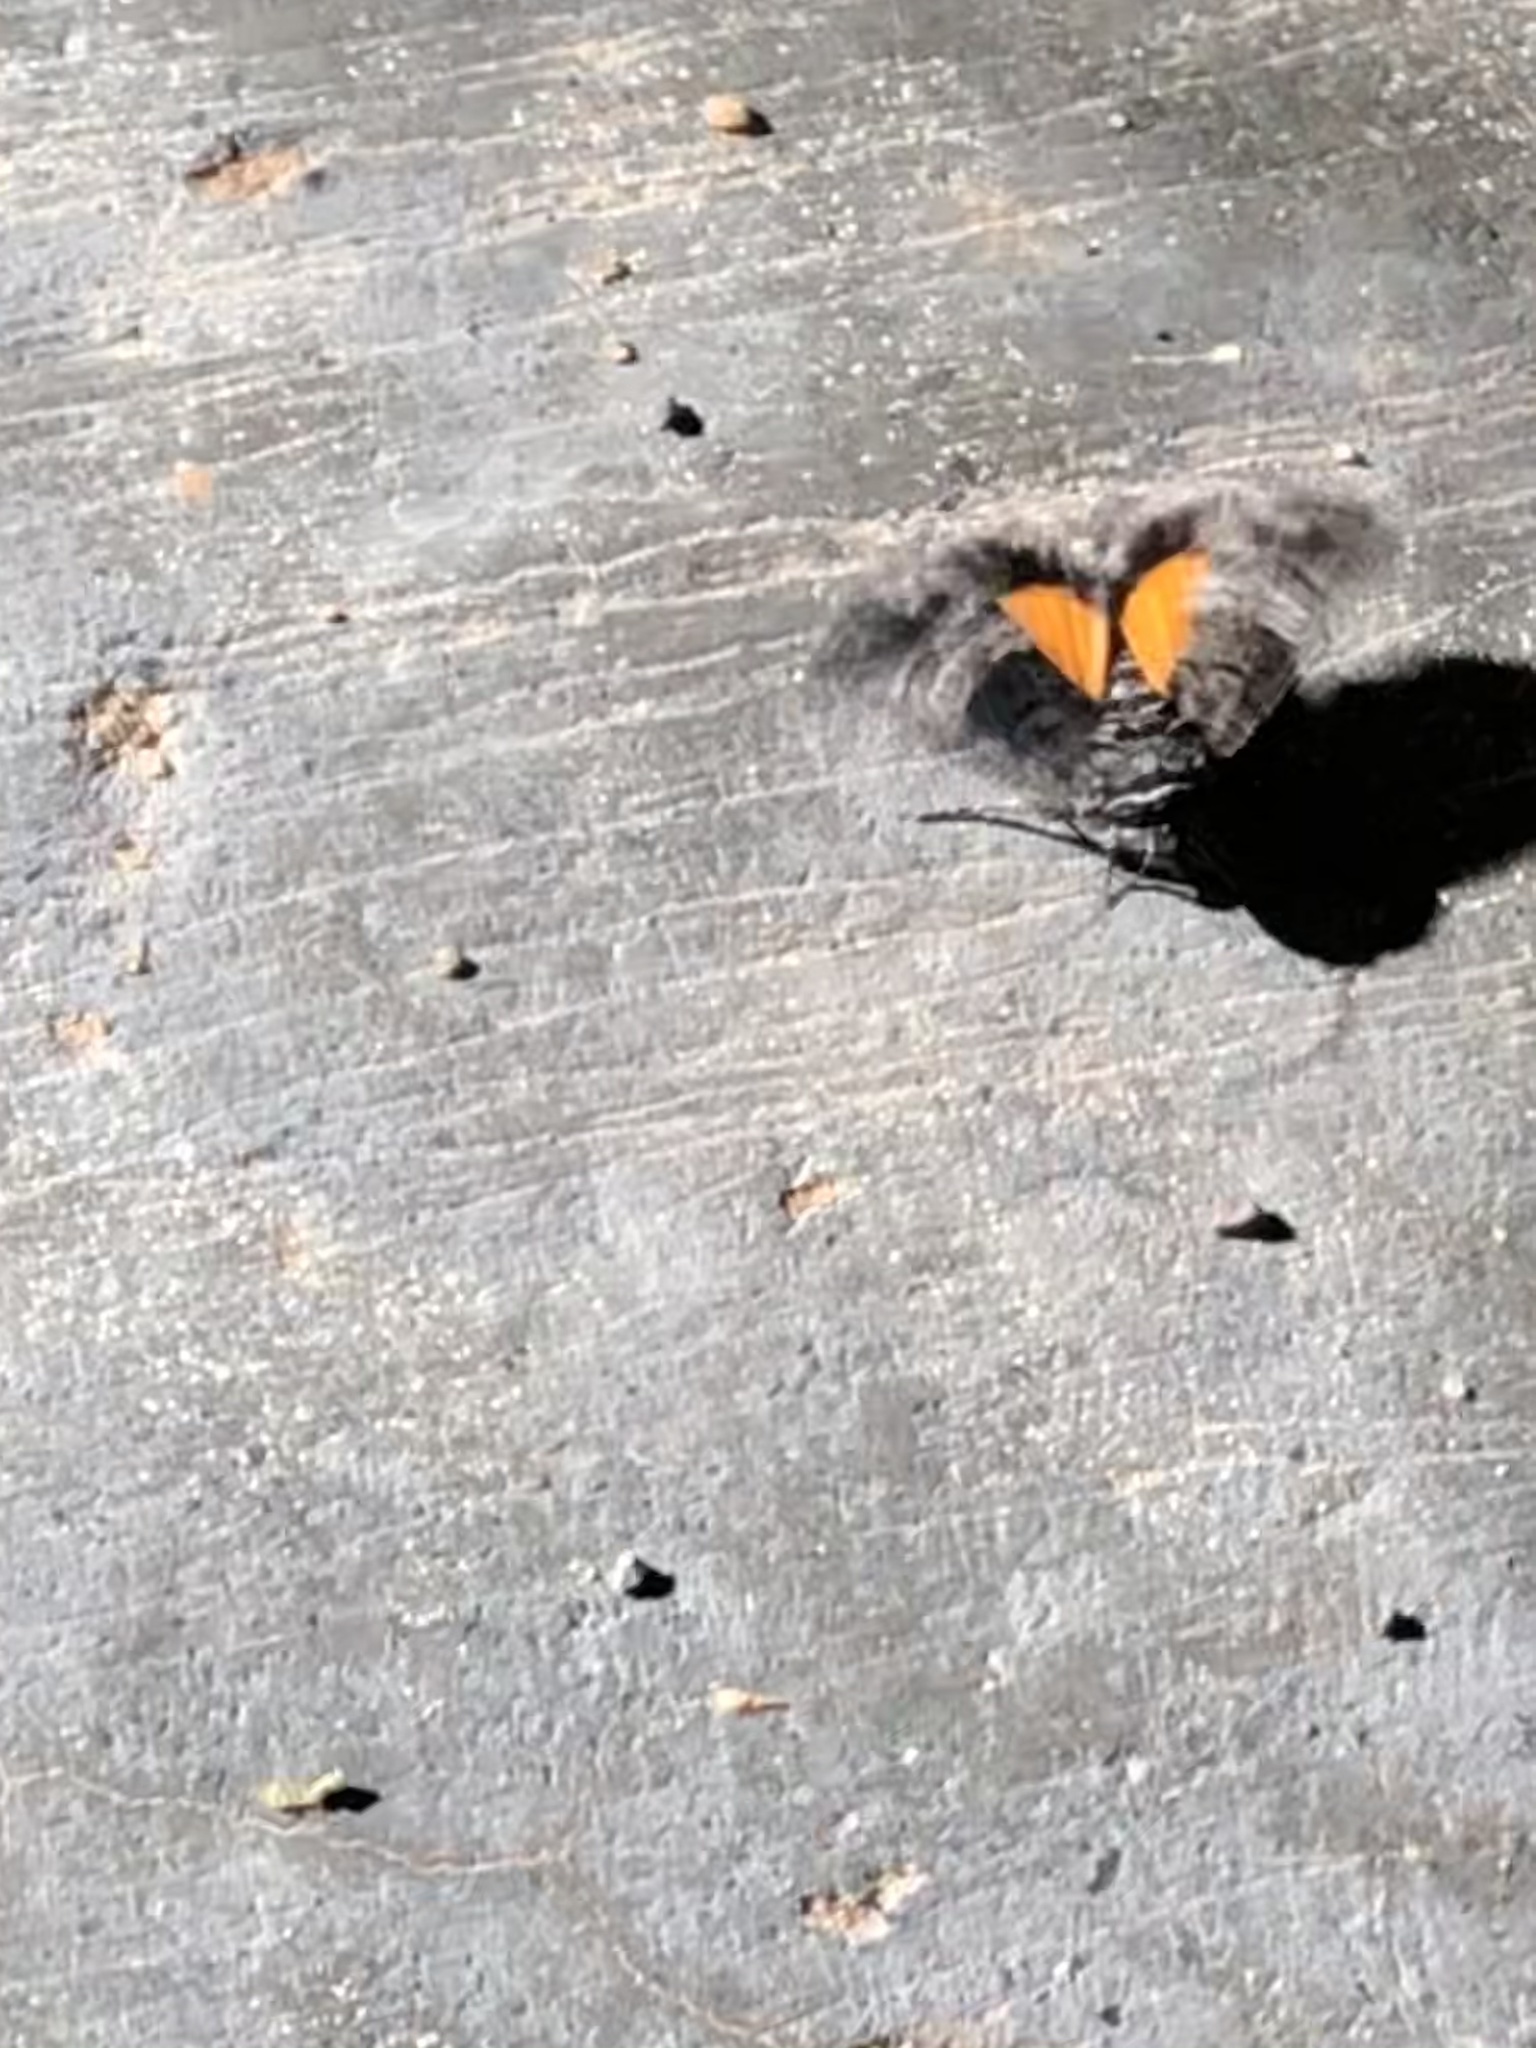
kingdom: Animalia
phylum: Arthropoda
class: Insecta
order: Lepidoptera
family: Noctuidae
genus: Copanarta
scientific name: Copanarta aurea
